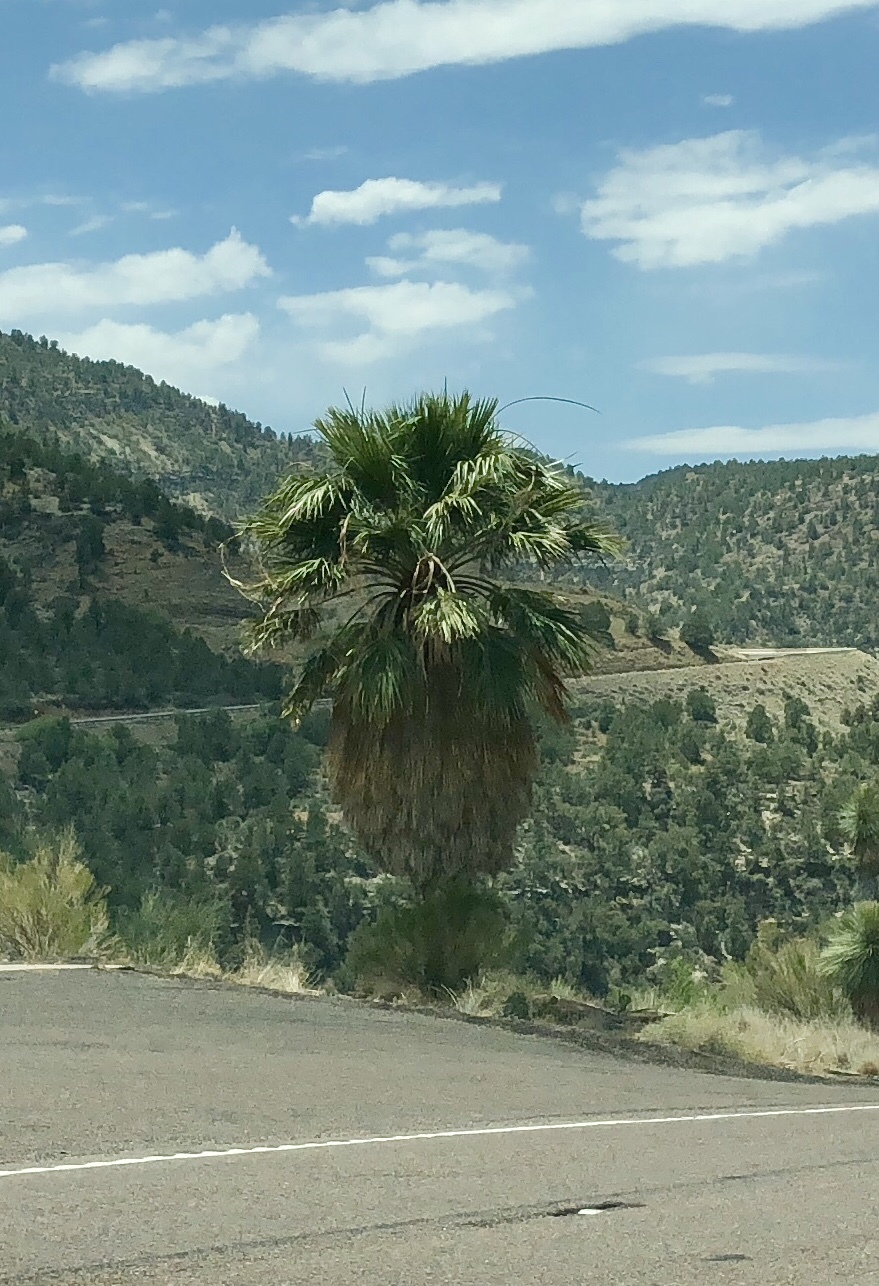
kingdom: Plantae
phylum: Tracheophyta
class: Liliopsida
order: Arecales
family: Arecaceae
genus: Washingtonia
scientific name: Washingtonia filifera
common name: California fan palm
